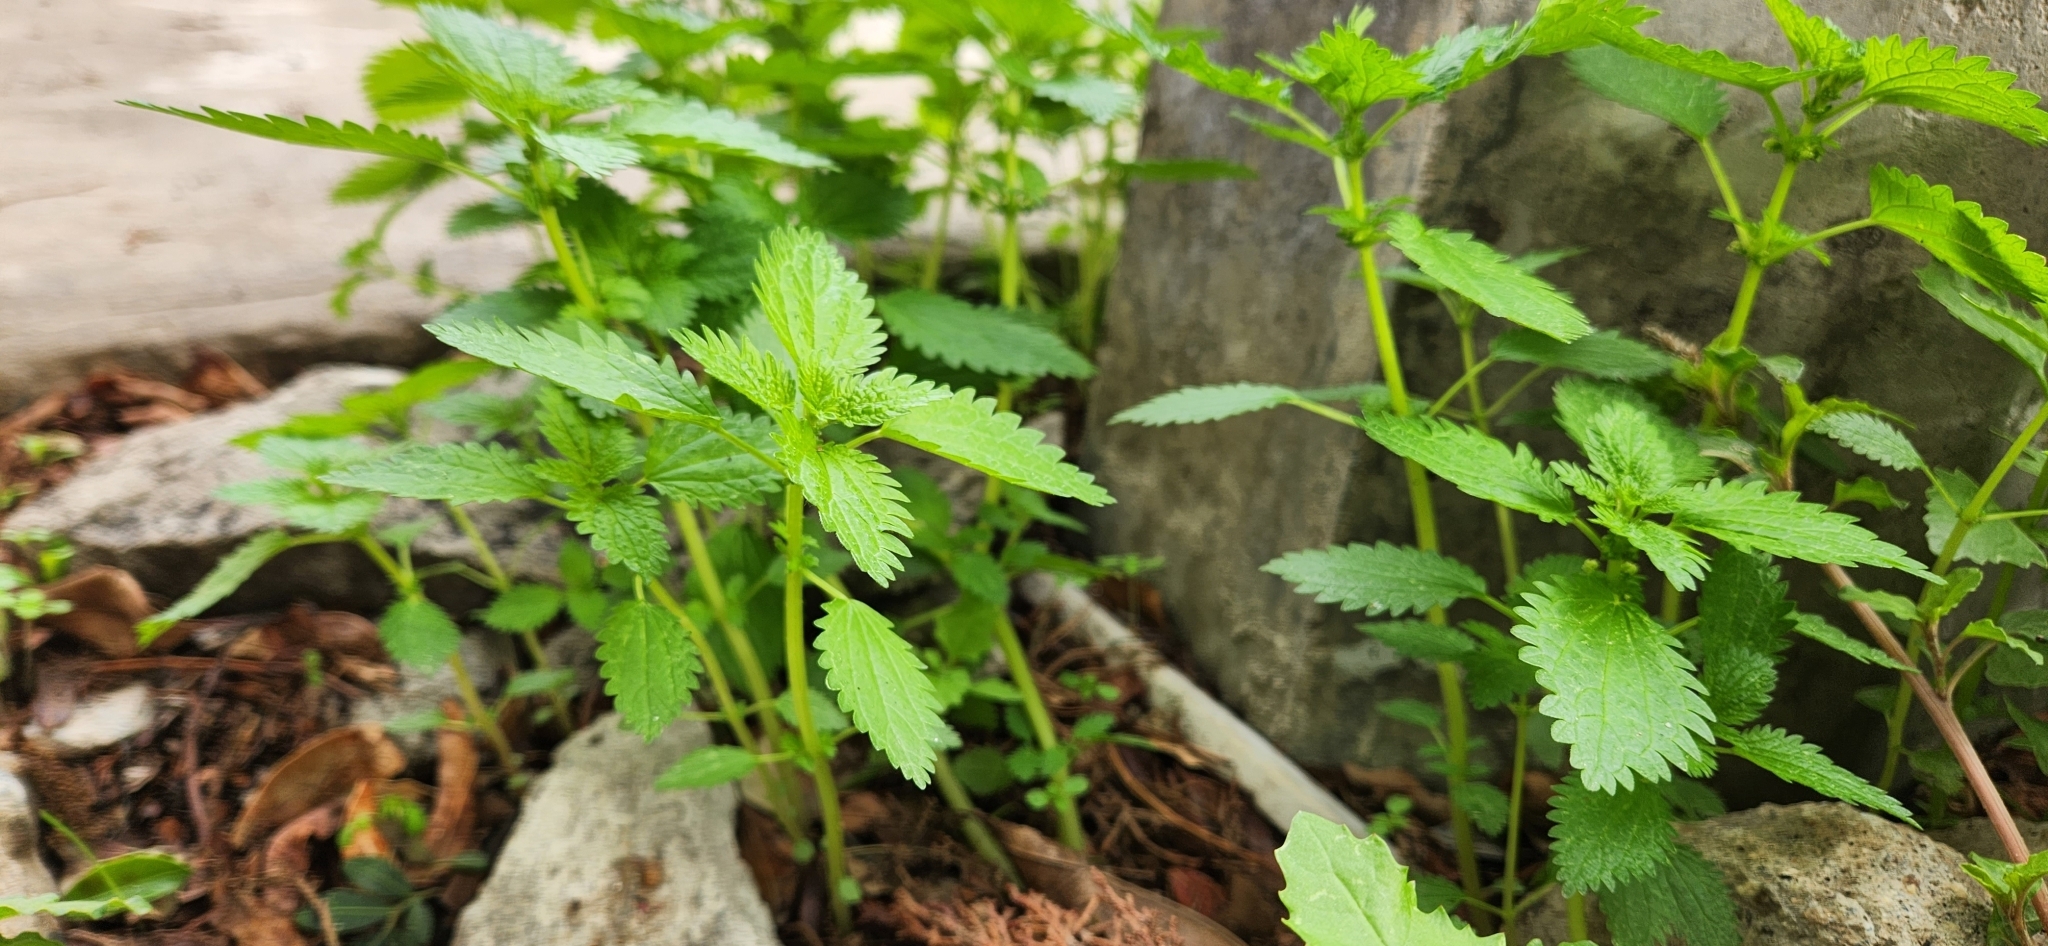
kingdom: Plantae
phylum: Tracheophyta
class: Magnoliopsida
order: Rosales
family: Urticaceae
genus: Urtica
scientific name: Urtica urens
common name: Dwarf nettle
